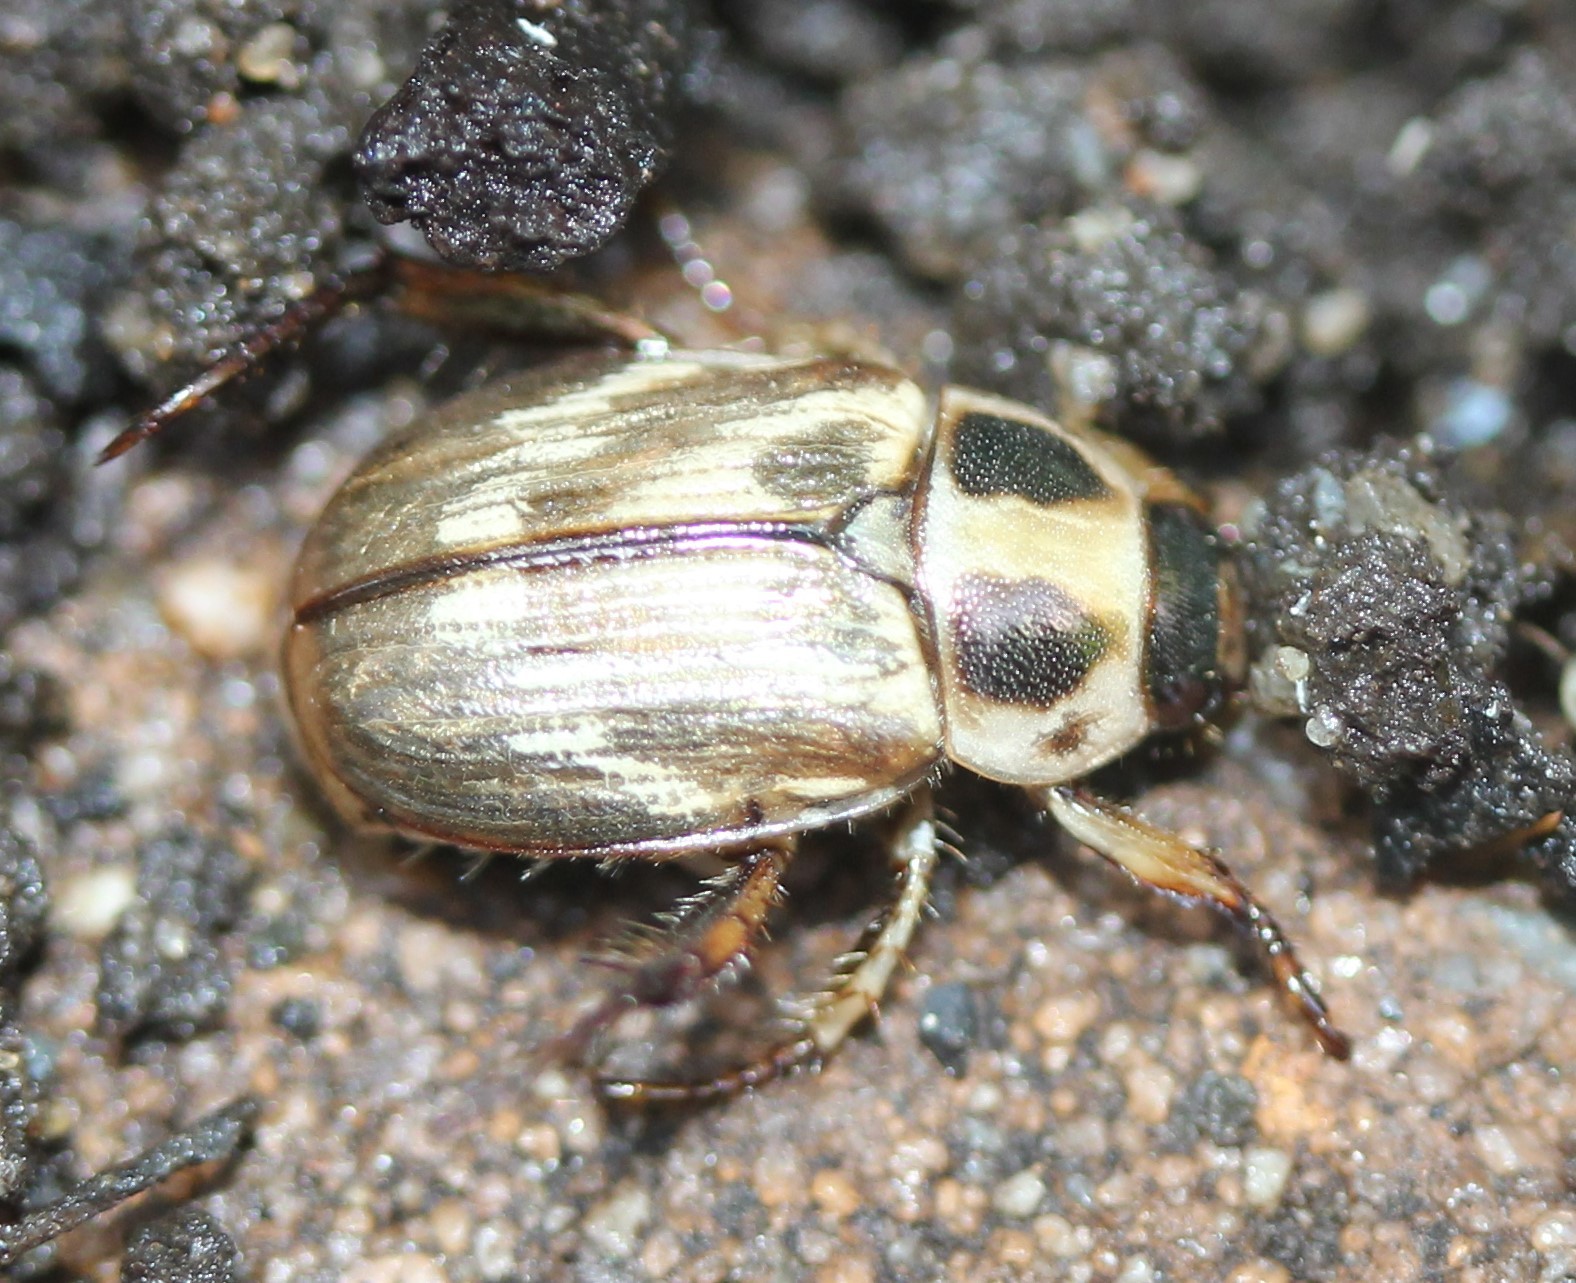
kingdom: Animalia
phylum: Arthropoda
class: Insecta
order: Coleoptera
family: Scarabaeidae
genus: Exomala
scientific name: Exomala orientalis
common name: Oriental beetle
